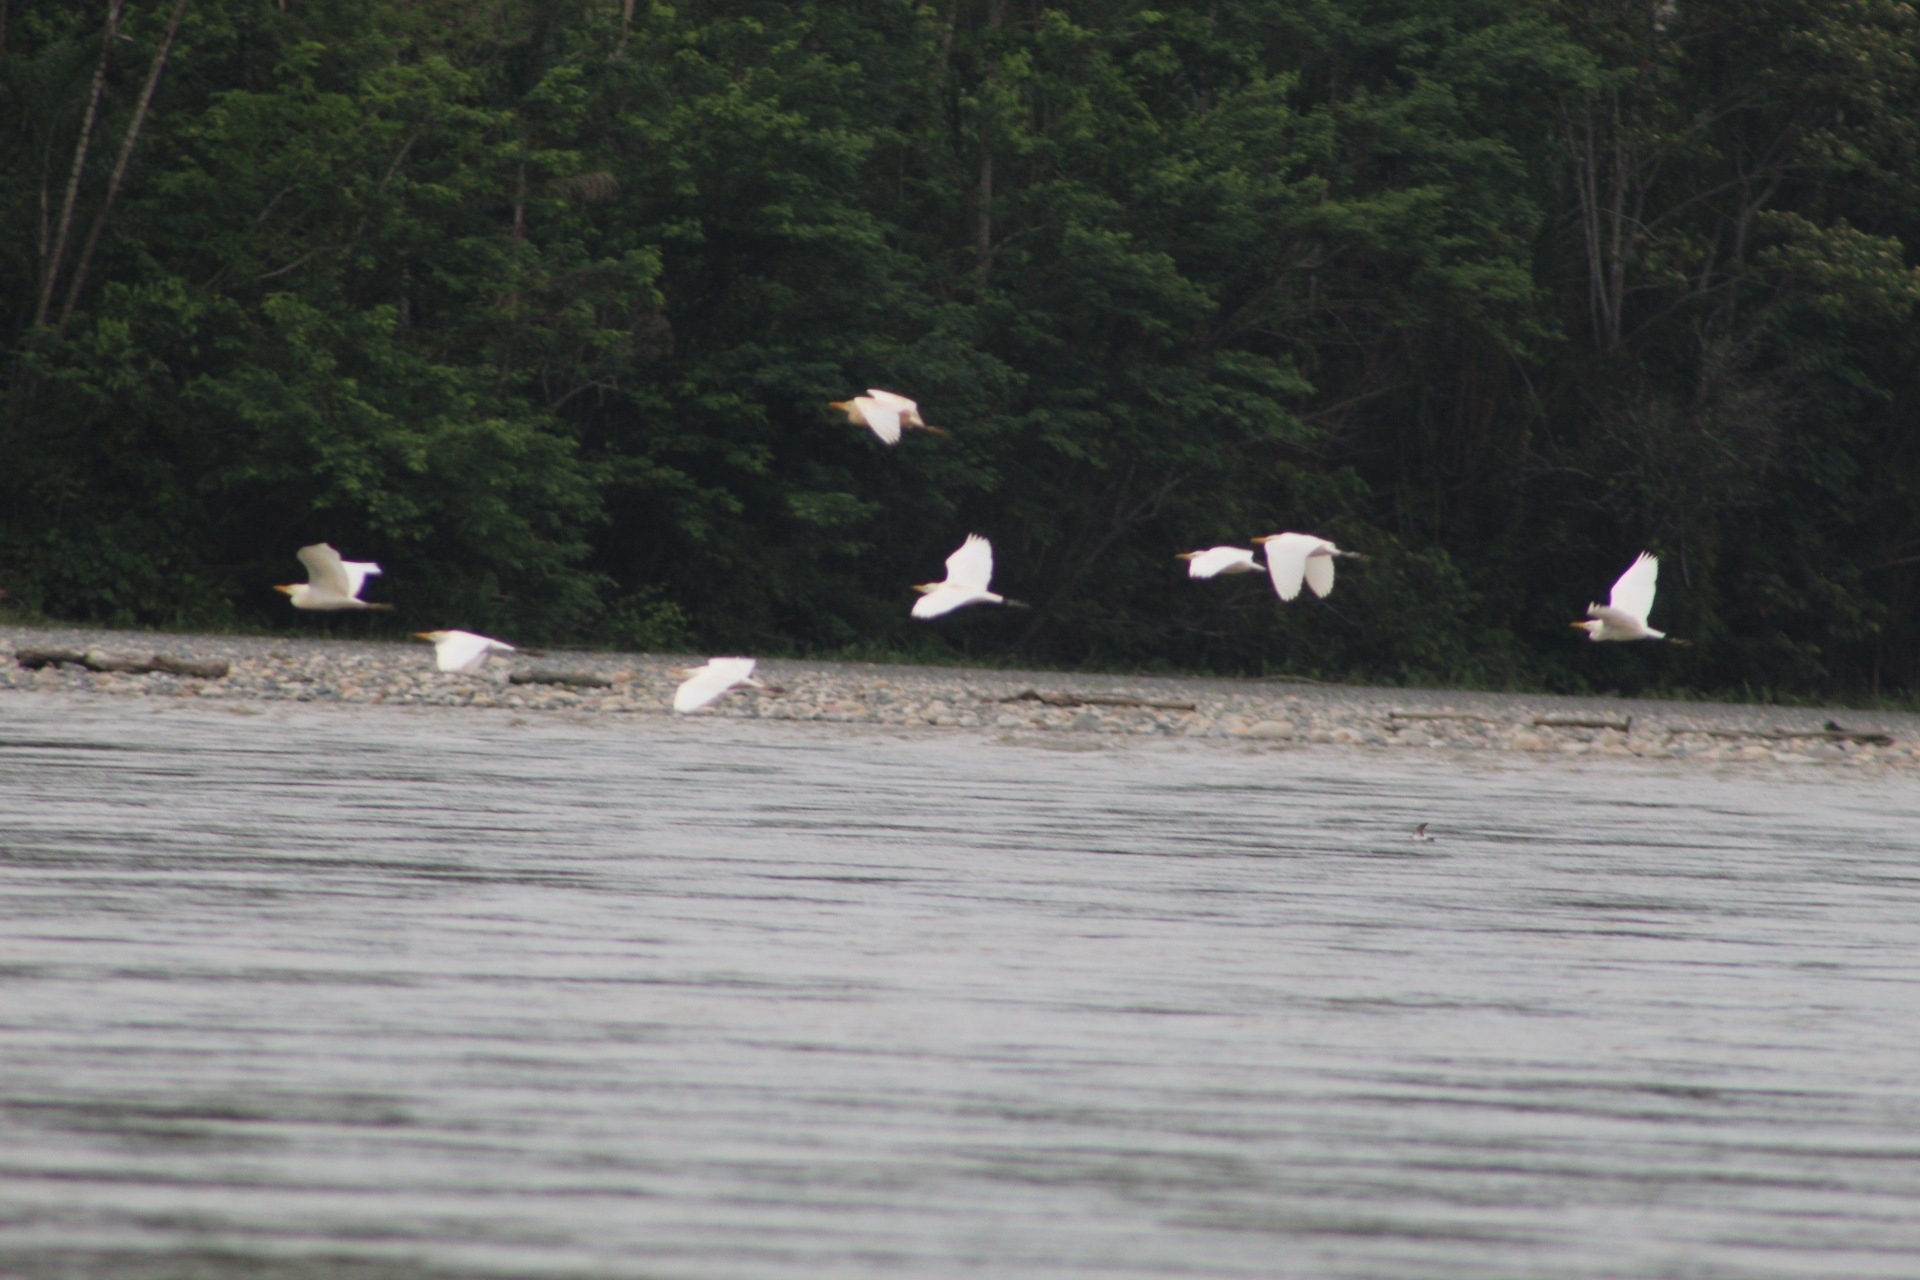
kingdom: Animalia
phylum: Chordata
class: Aves
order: Pelecaniformes
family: Ardeidae
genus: Bubulcus
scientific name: Bubulcus ibis
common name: Cattle egret
